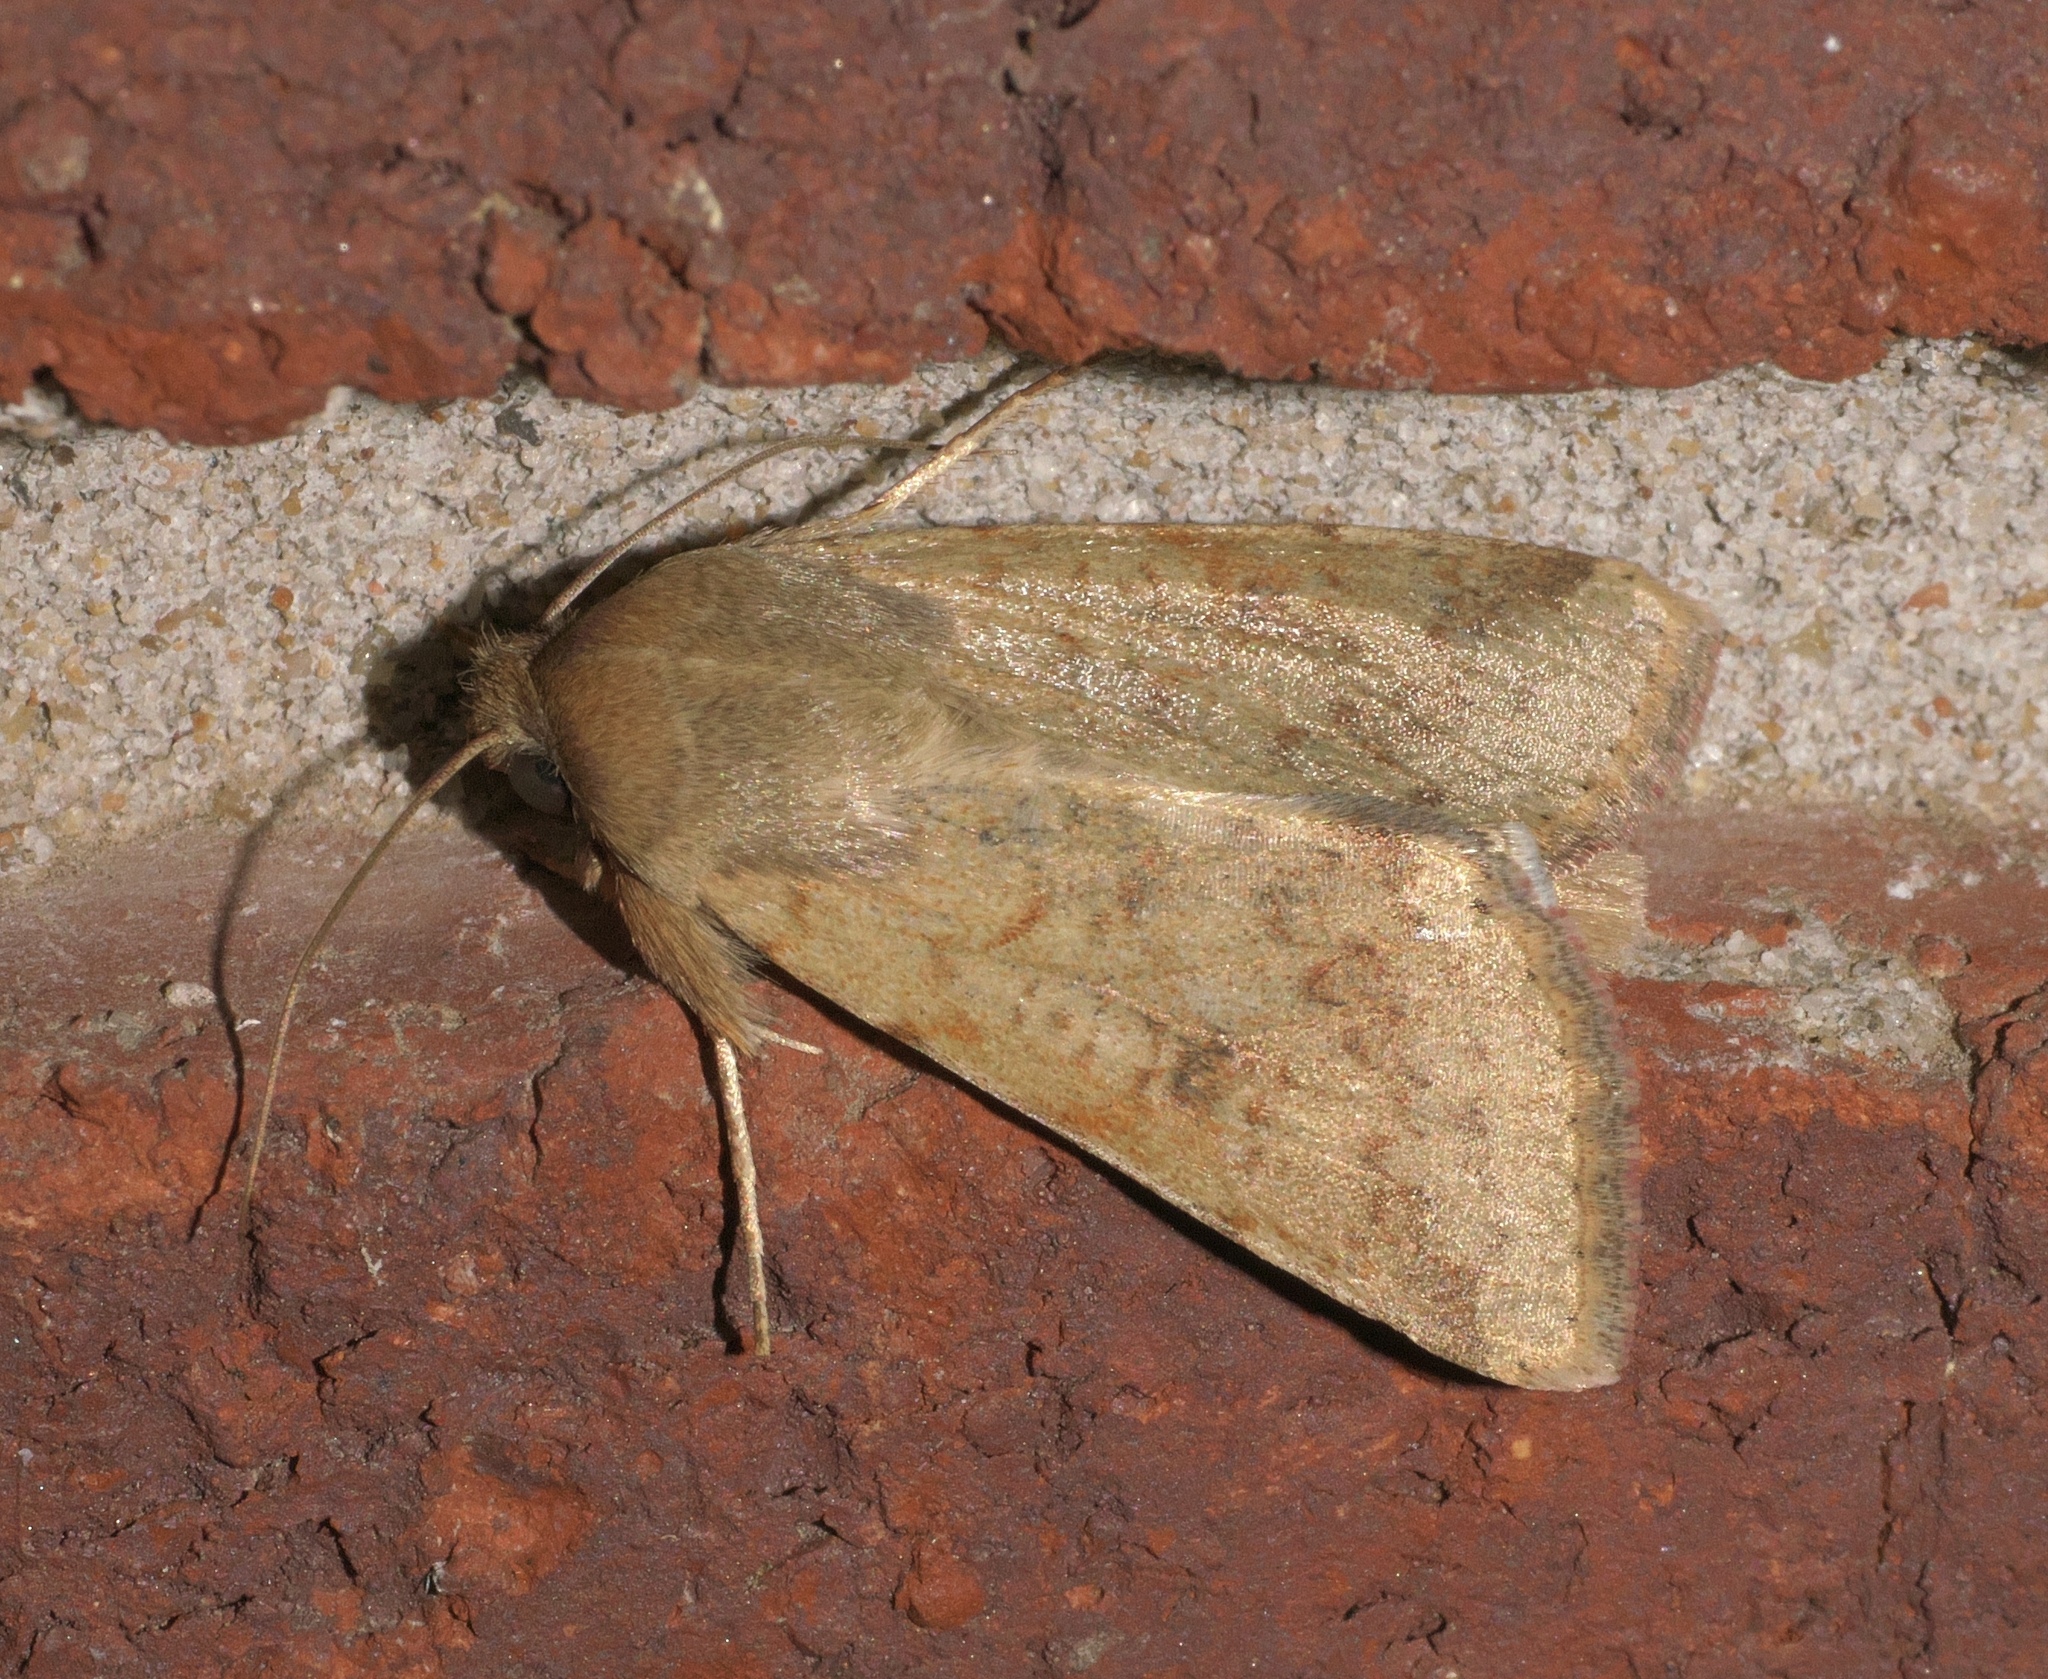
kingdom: Animalia
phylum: Arthropoda
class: Insecta
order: Lepidoptera
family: Noctuidae
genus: Helicoverpa
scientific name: Helicoverpa zea
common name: Bollworm
